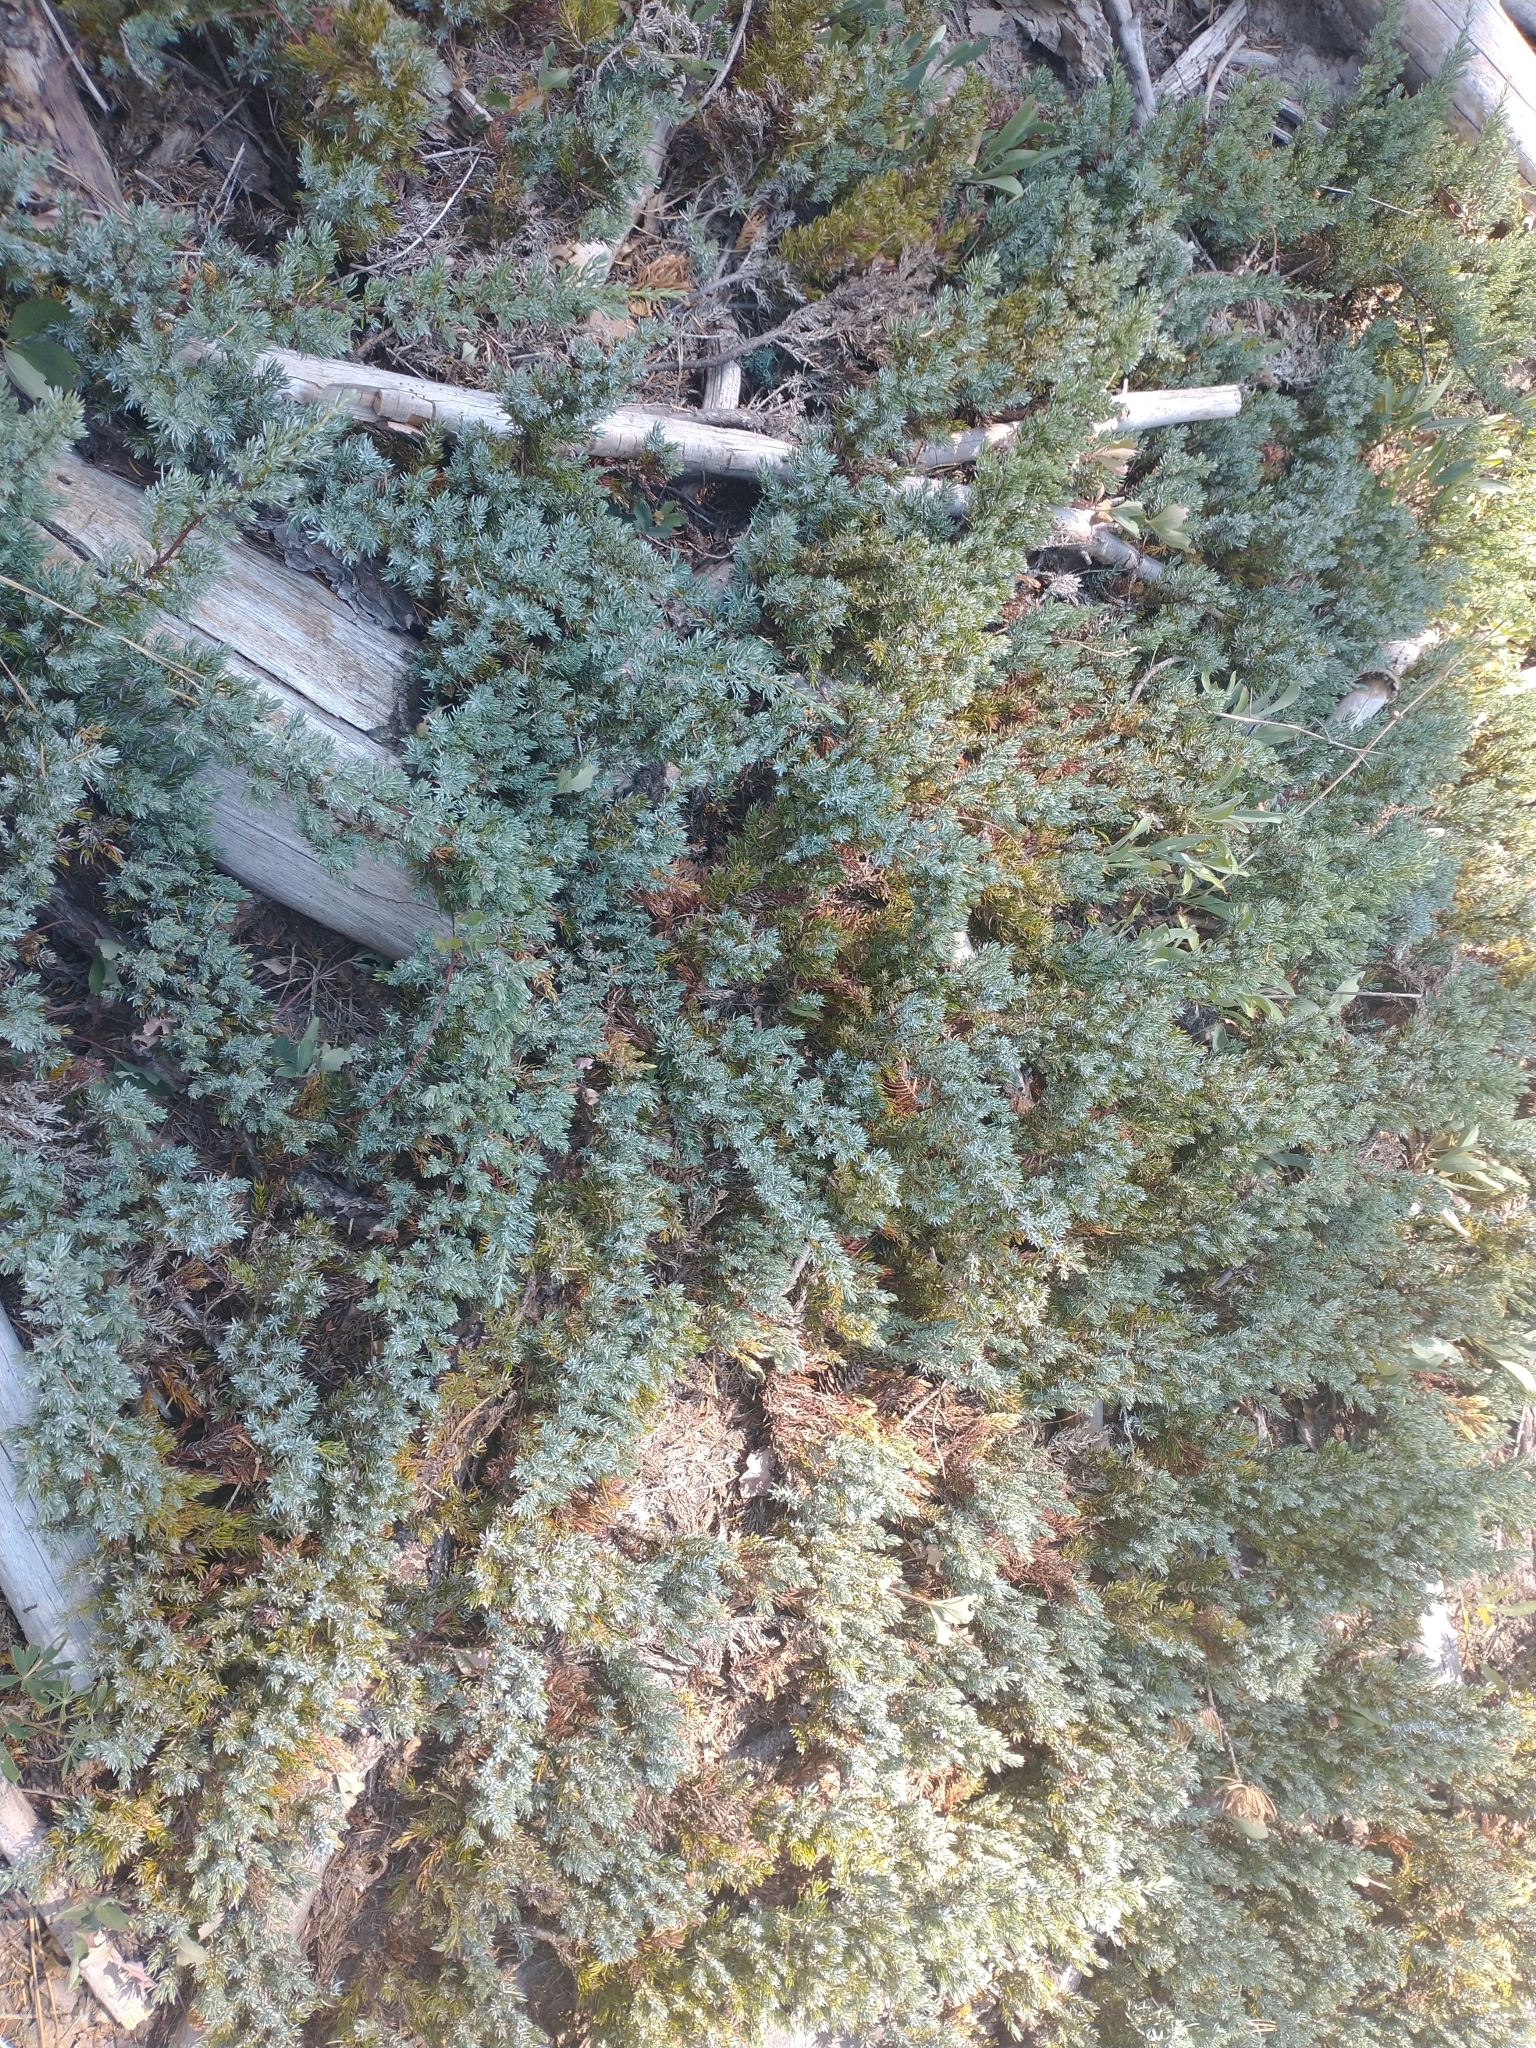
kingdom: Plantae
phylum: Tracheophyta
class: Pinopsida
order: Pinales
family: Cupressaceae
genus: Juniperus
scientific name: Juniperus communis
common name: Common juniper
